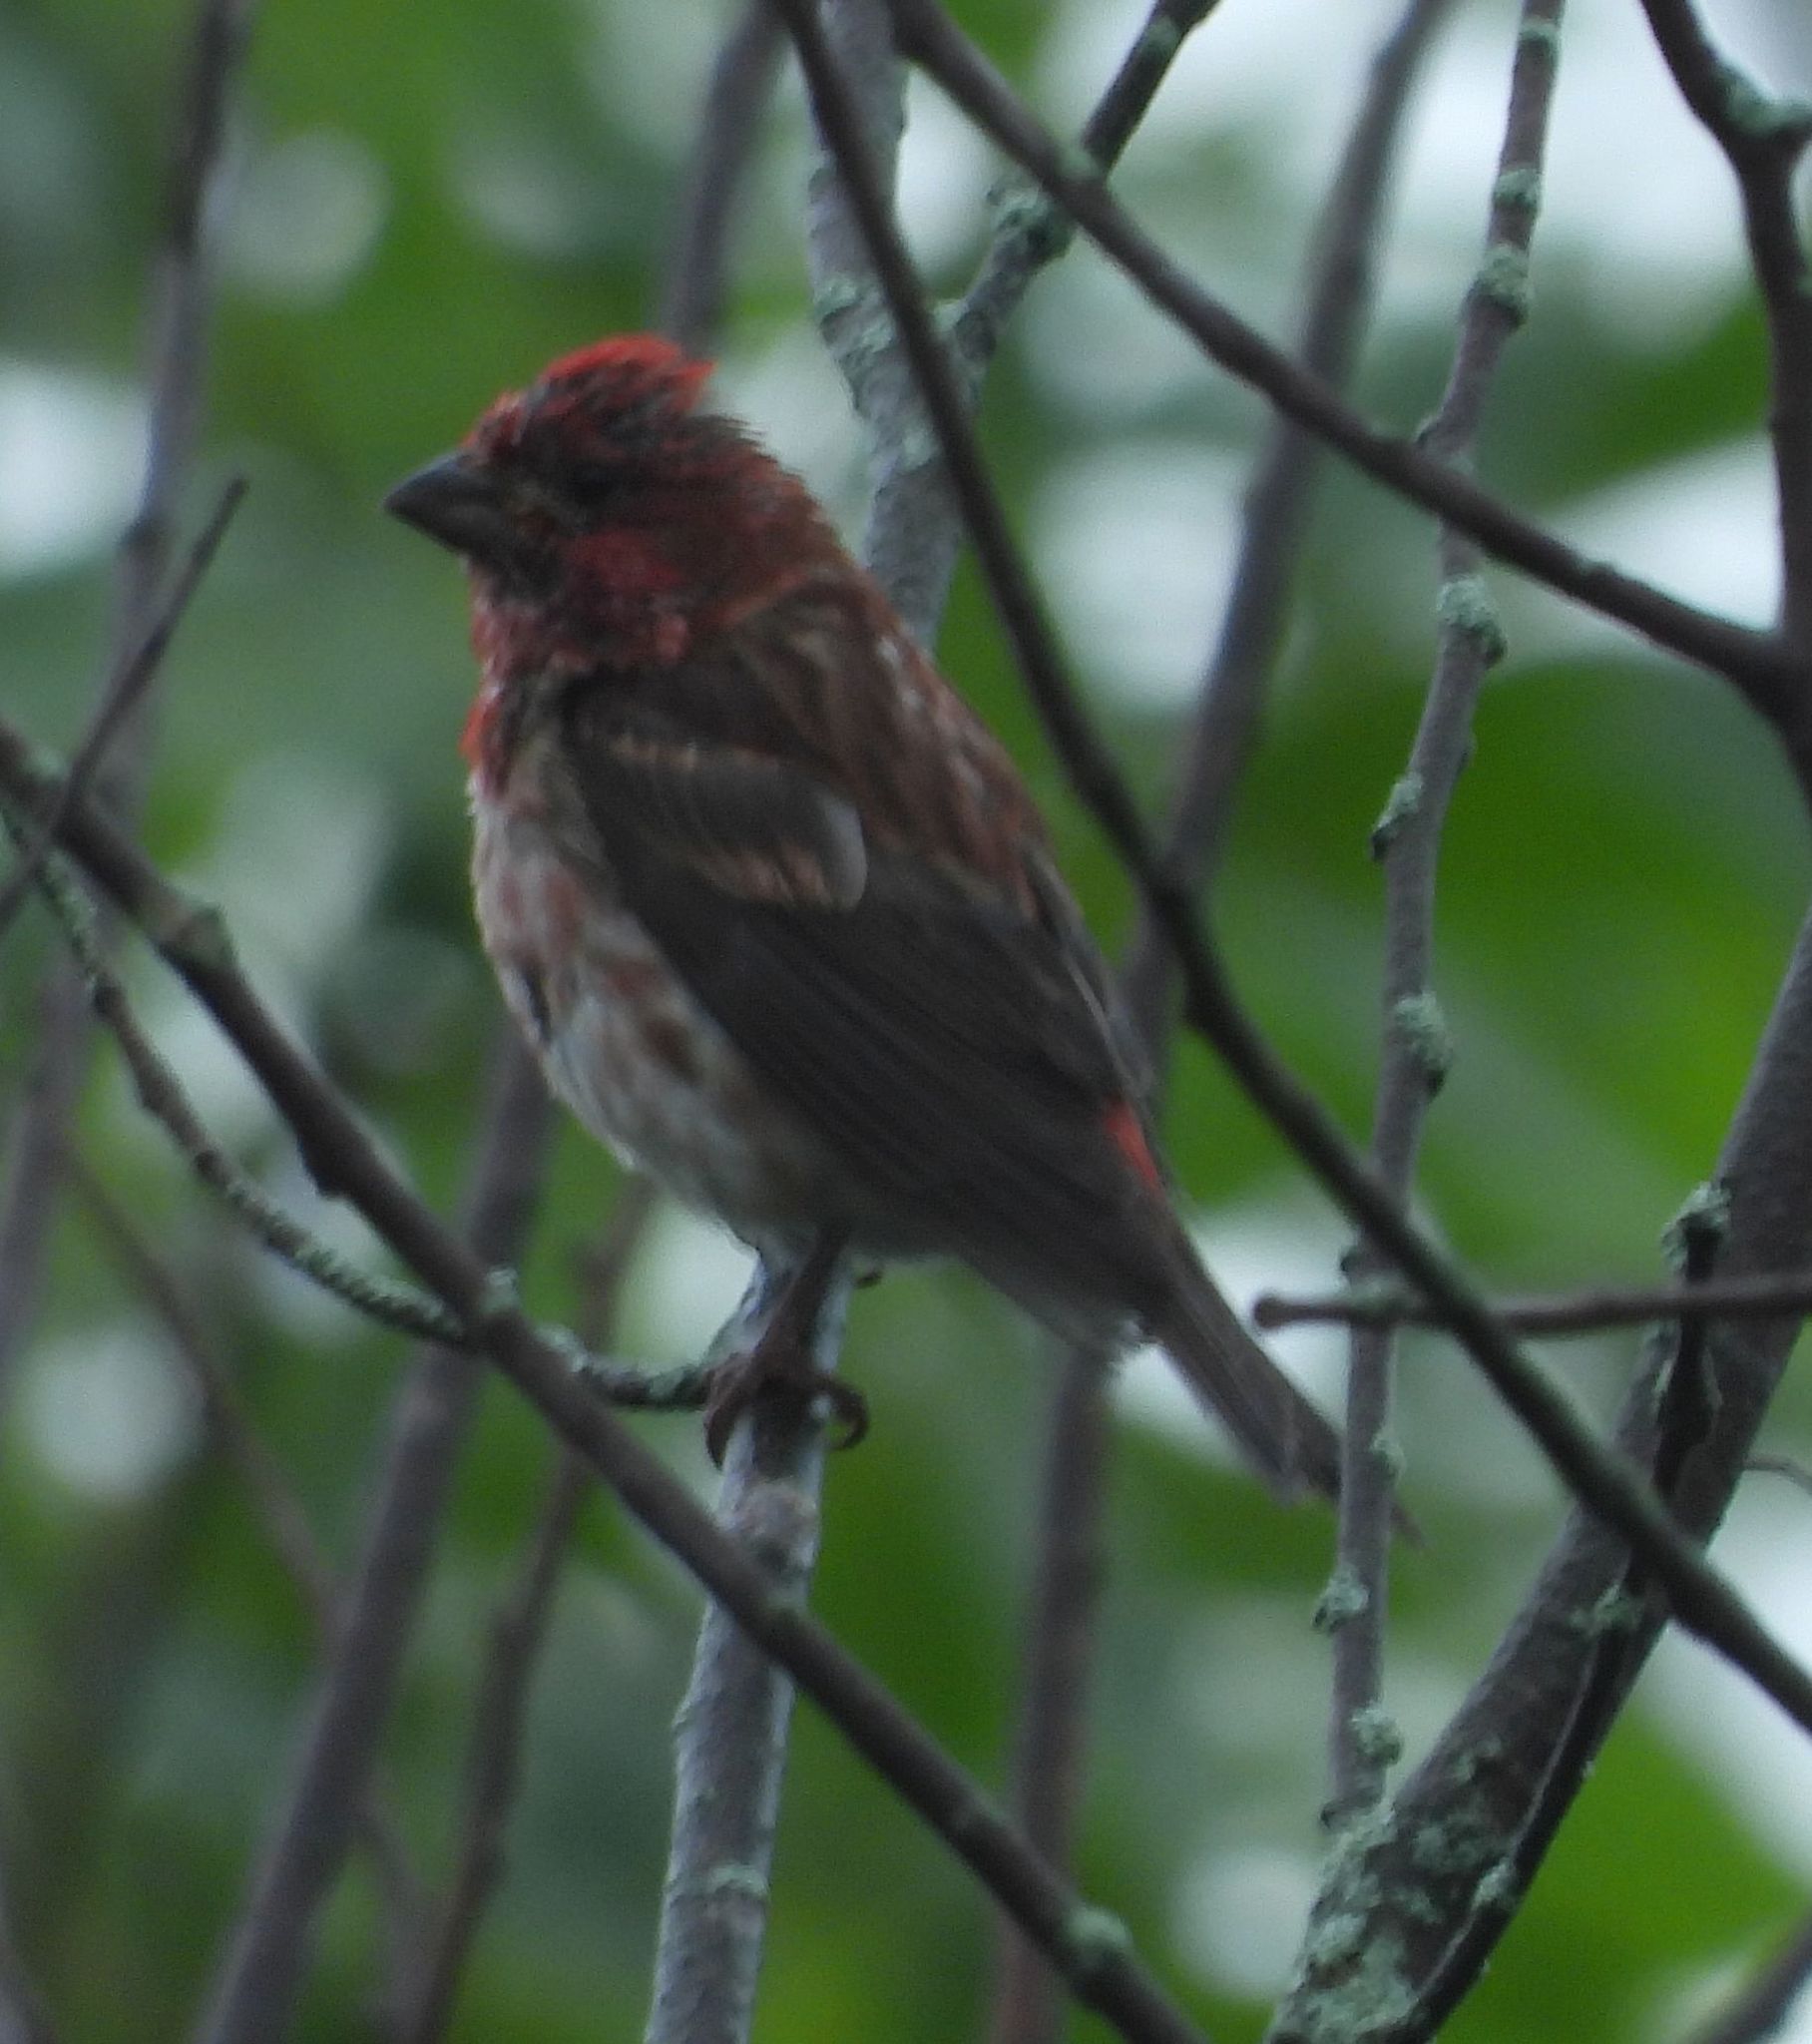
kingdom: Animalia
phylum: Chordata
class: Aves
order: Passeriformes
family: Fringillidae
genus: Haemorhous
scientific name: Haemorhous purpureus
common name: Purple finch
